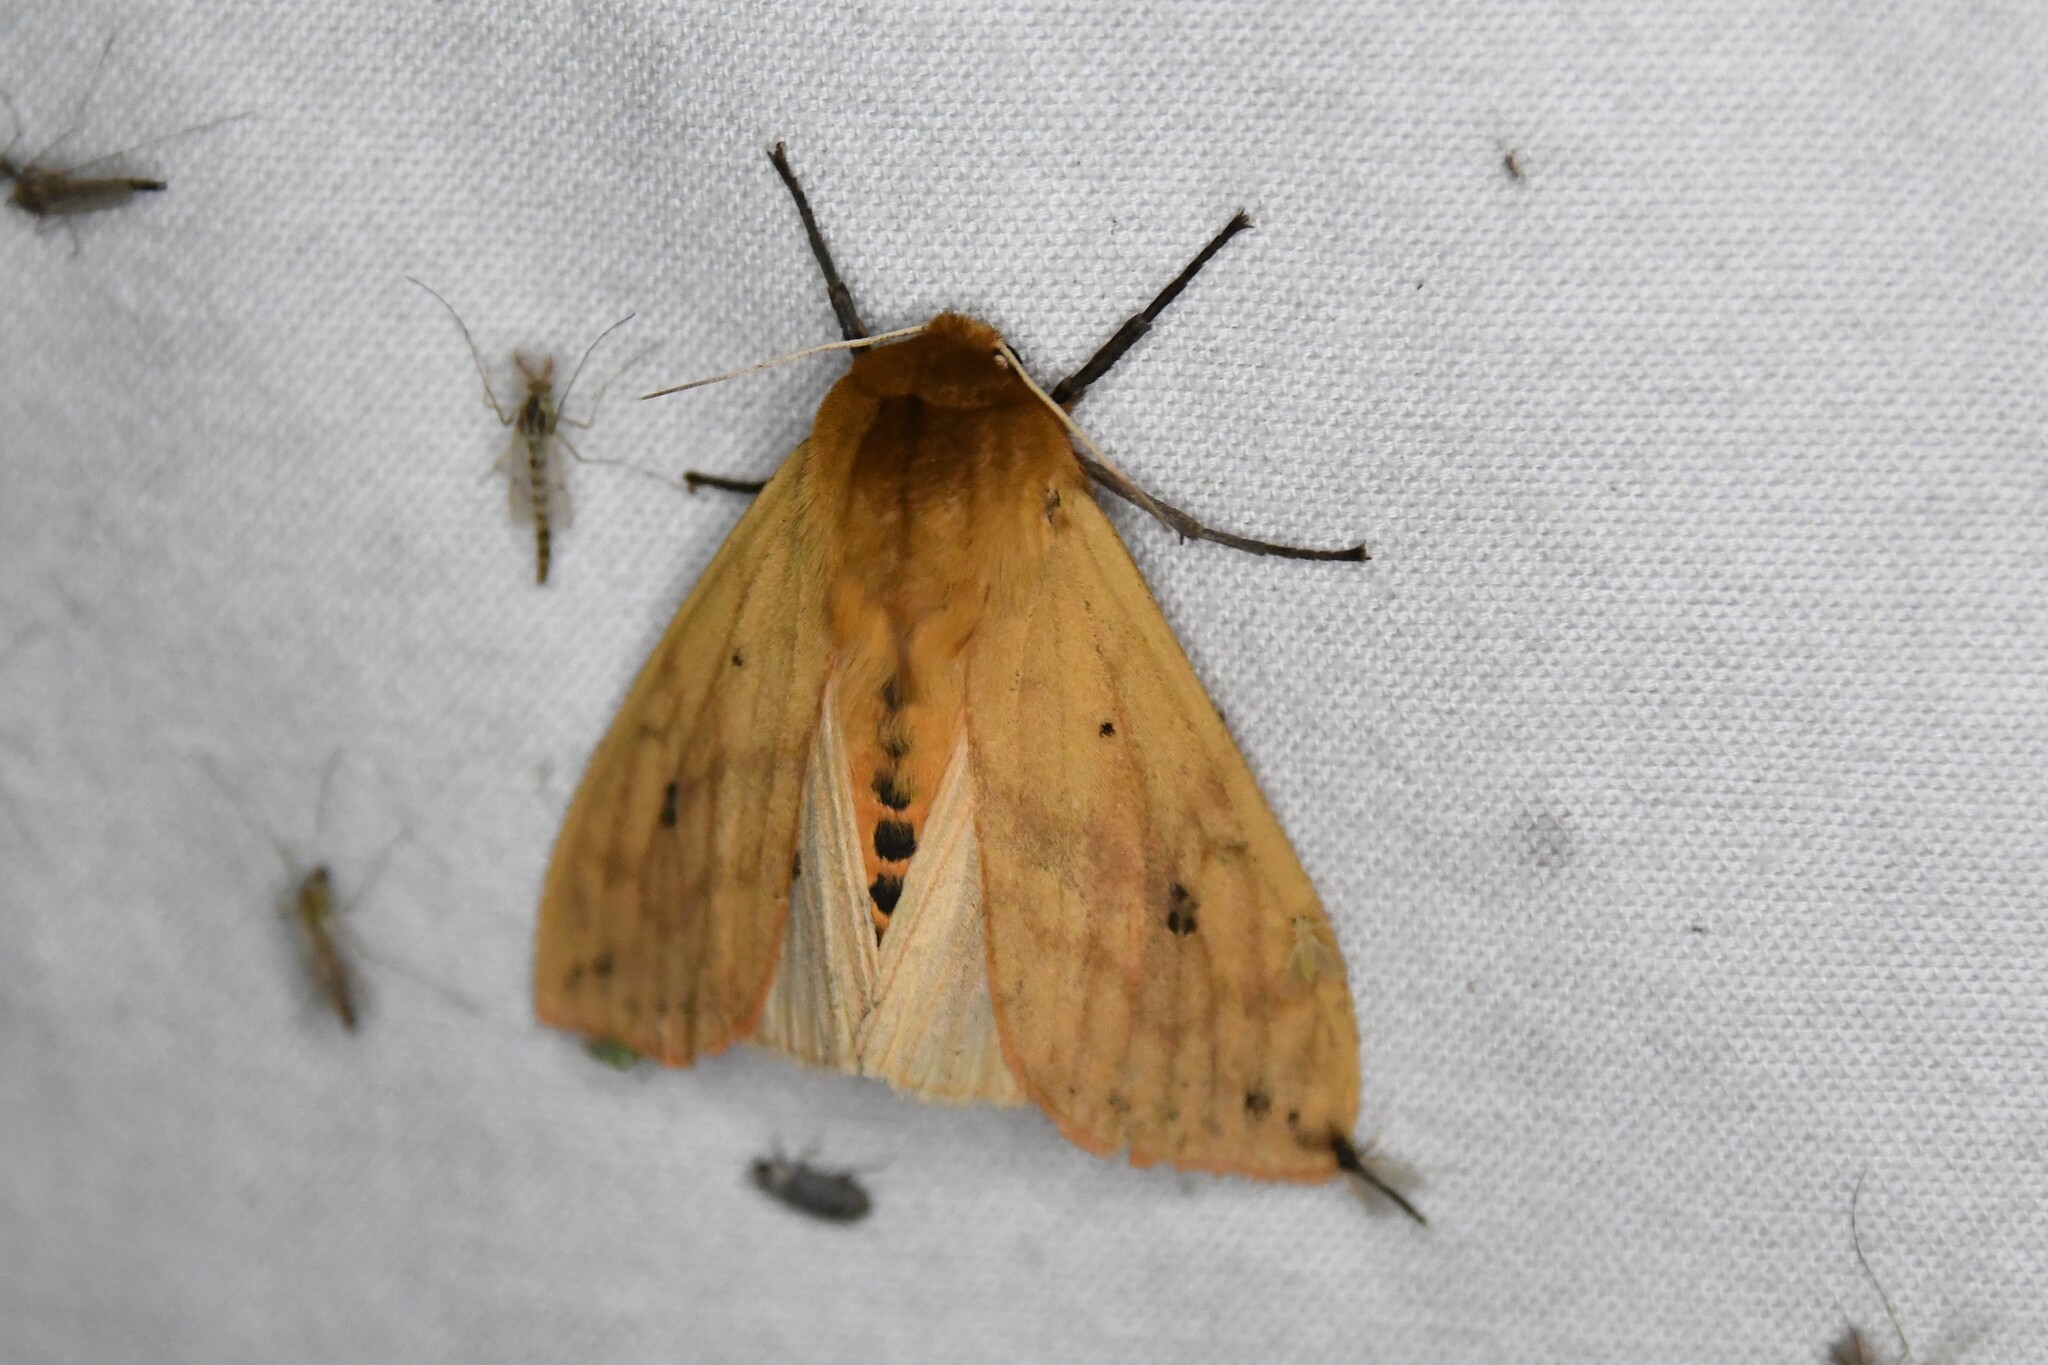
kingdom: Animalia
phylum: Arthropoda
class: Insecta
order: Lepidoptera
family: Erebidae
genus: Pyrrharctia
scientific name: Pyrrharctia isabella
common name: Isabella tiger moth
